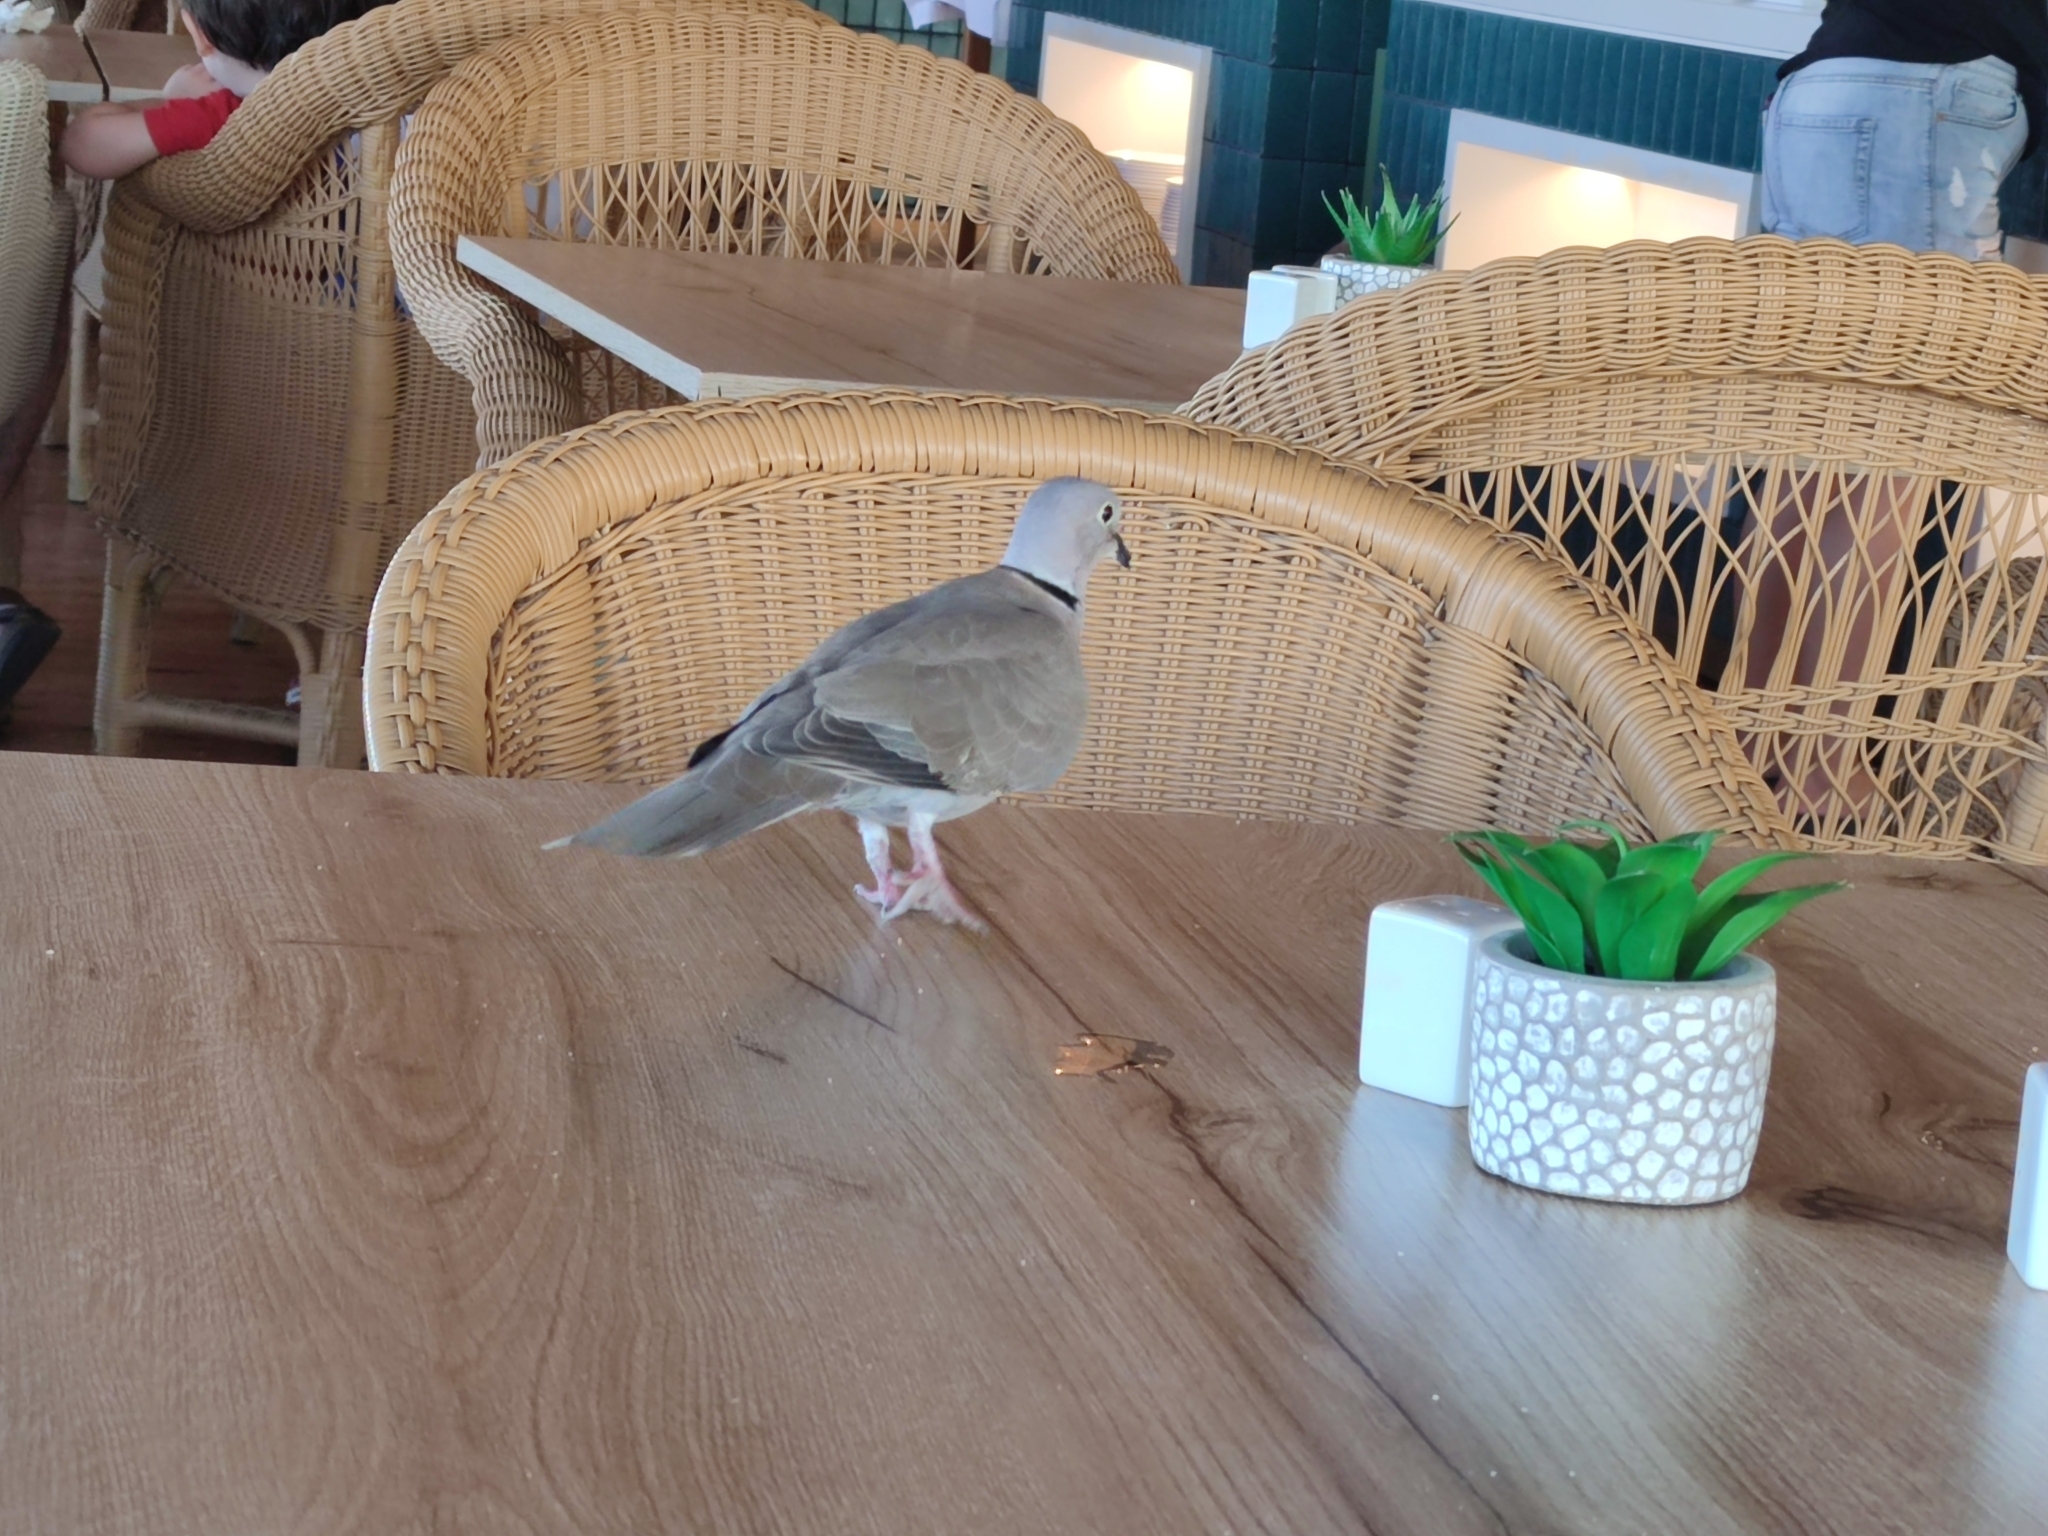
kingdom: Animalia
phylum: Chordata
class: Aves
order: Columbiformes
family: Columbidae
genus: Streptopelia
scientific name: Streptopelia decaocto
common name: Eurasian collared dove
